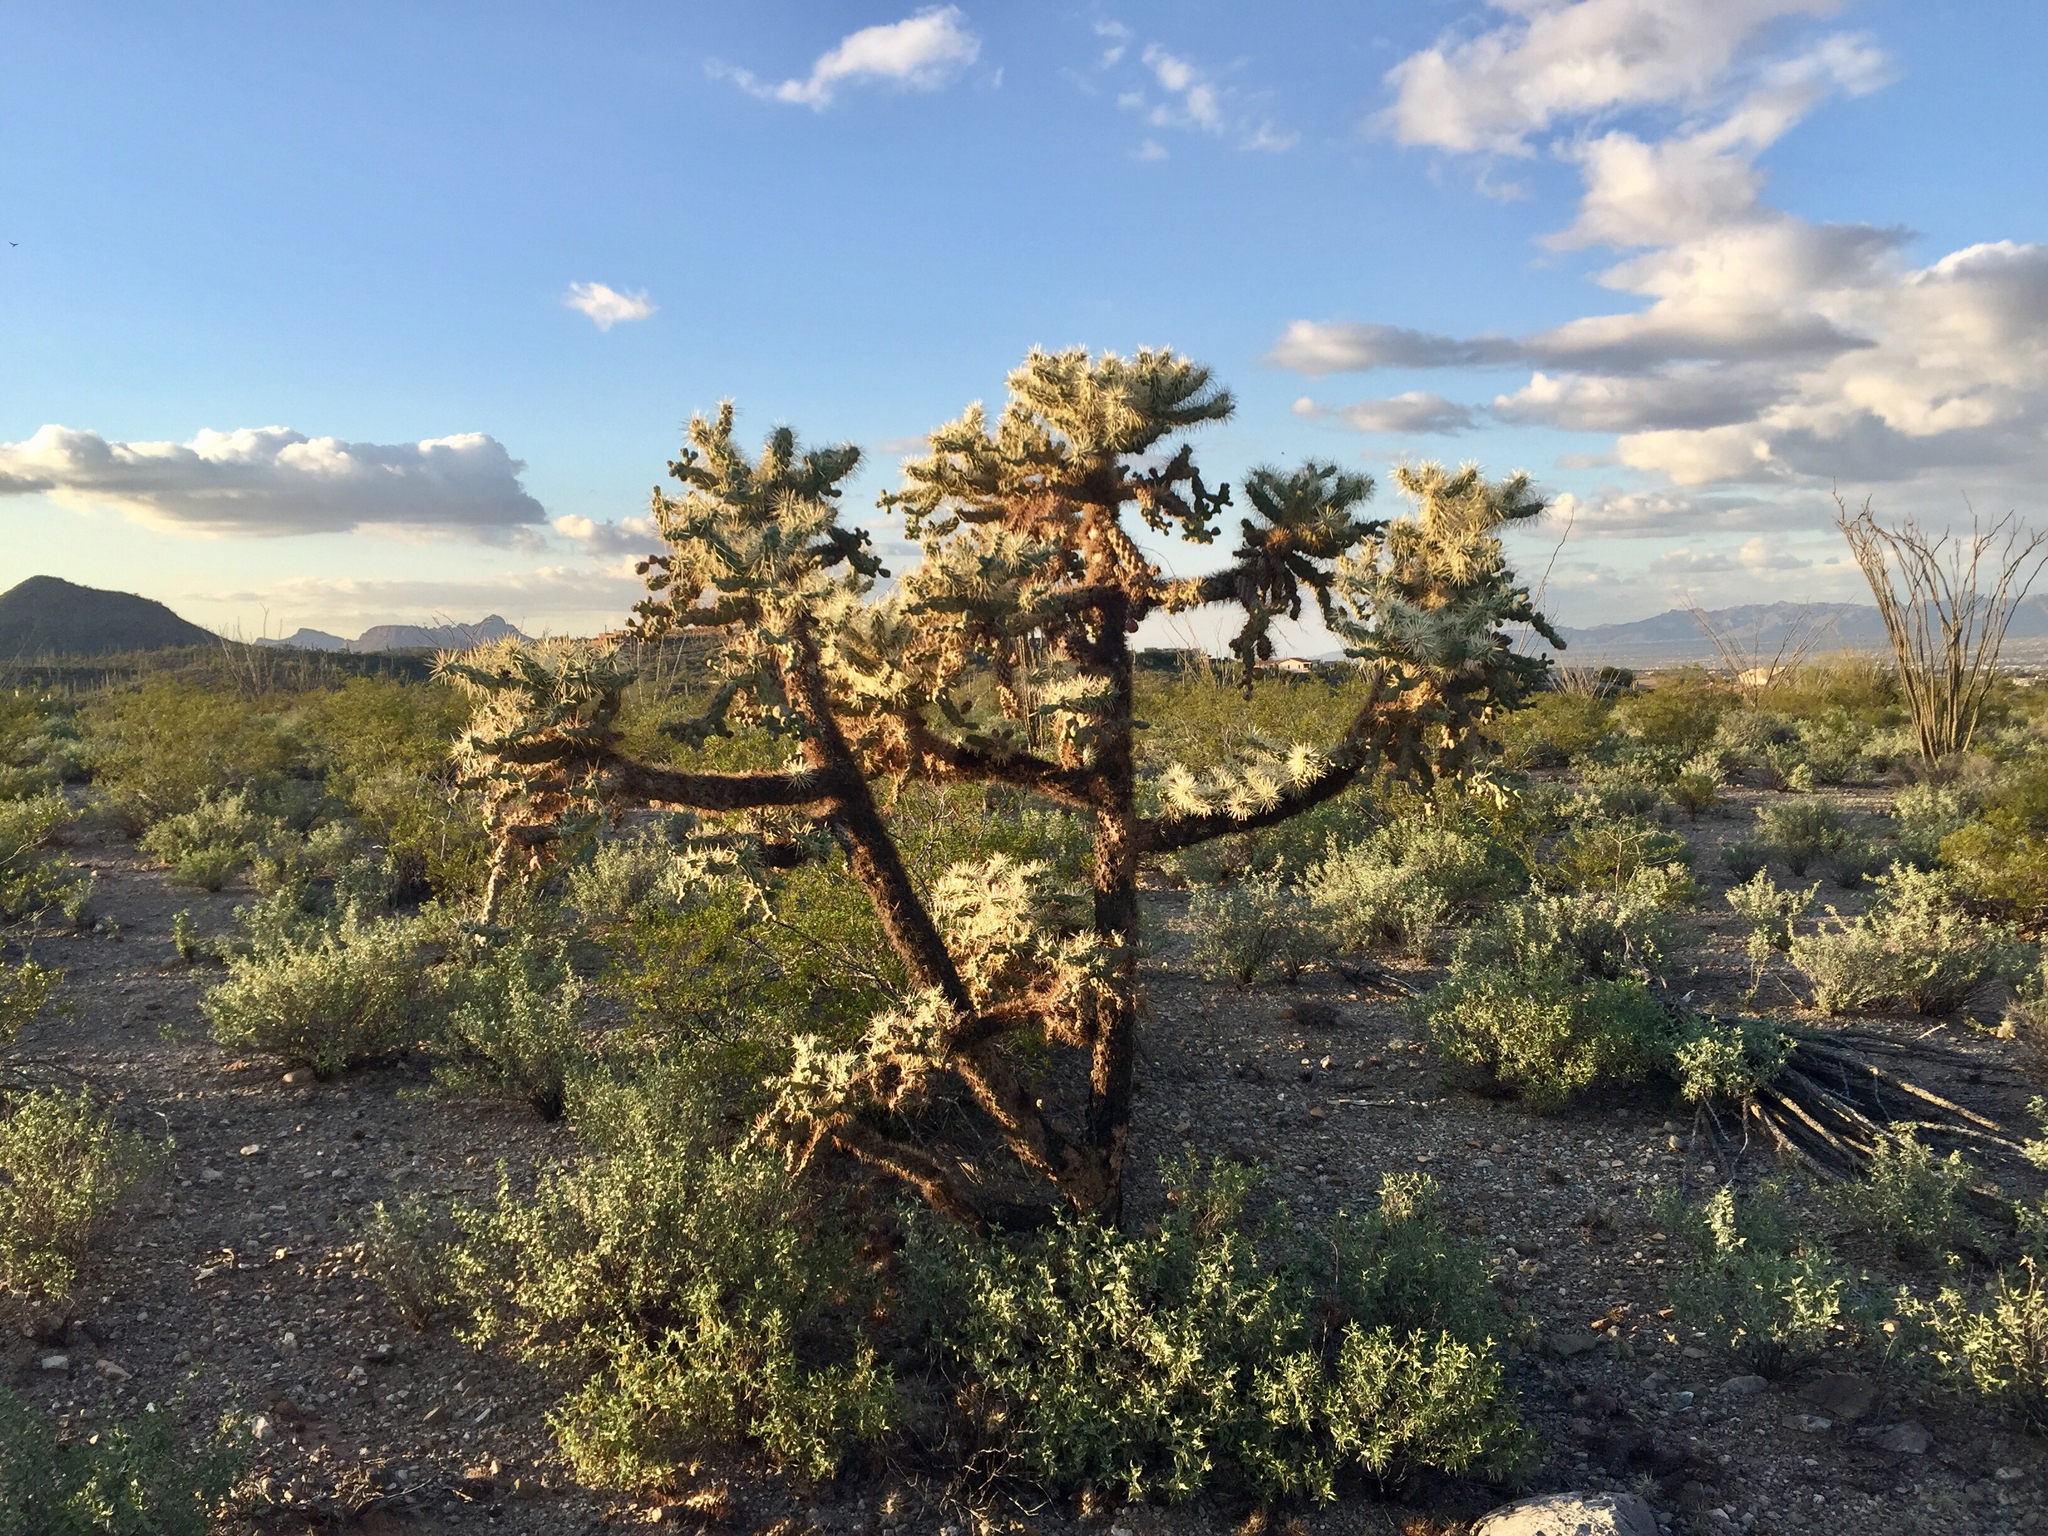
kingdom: Plantae
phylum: Tracheophyta
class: Magnoliopsida
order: Caryophyllales
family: Cactaceae
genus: Cylindropuntia
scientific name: Cylindropuntia fulgida
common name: Jumping cholla
